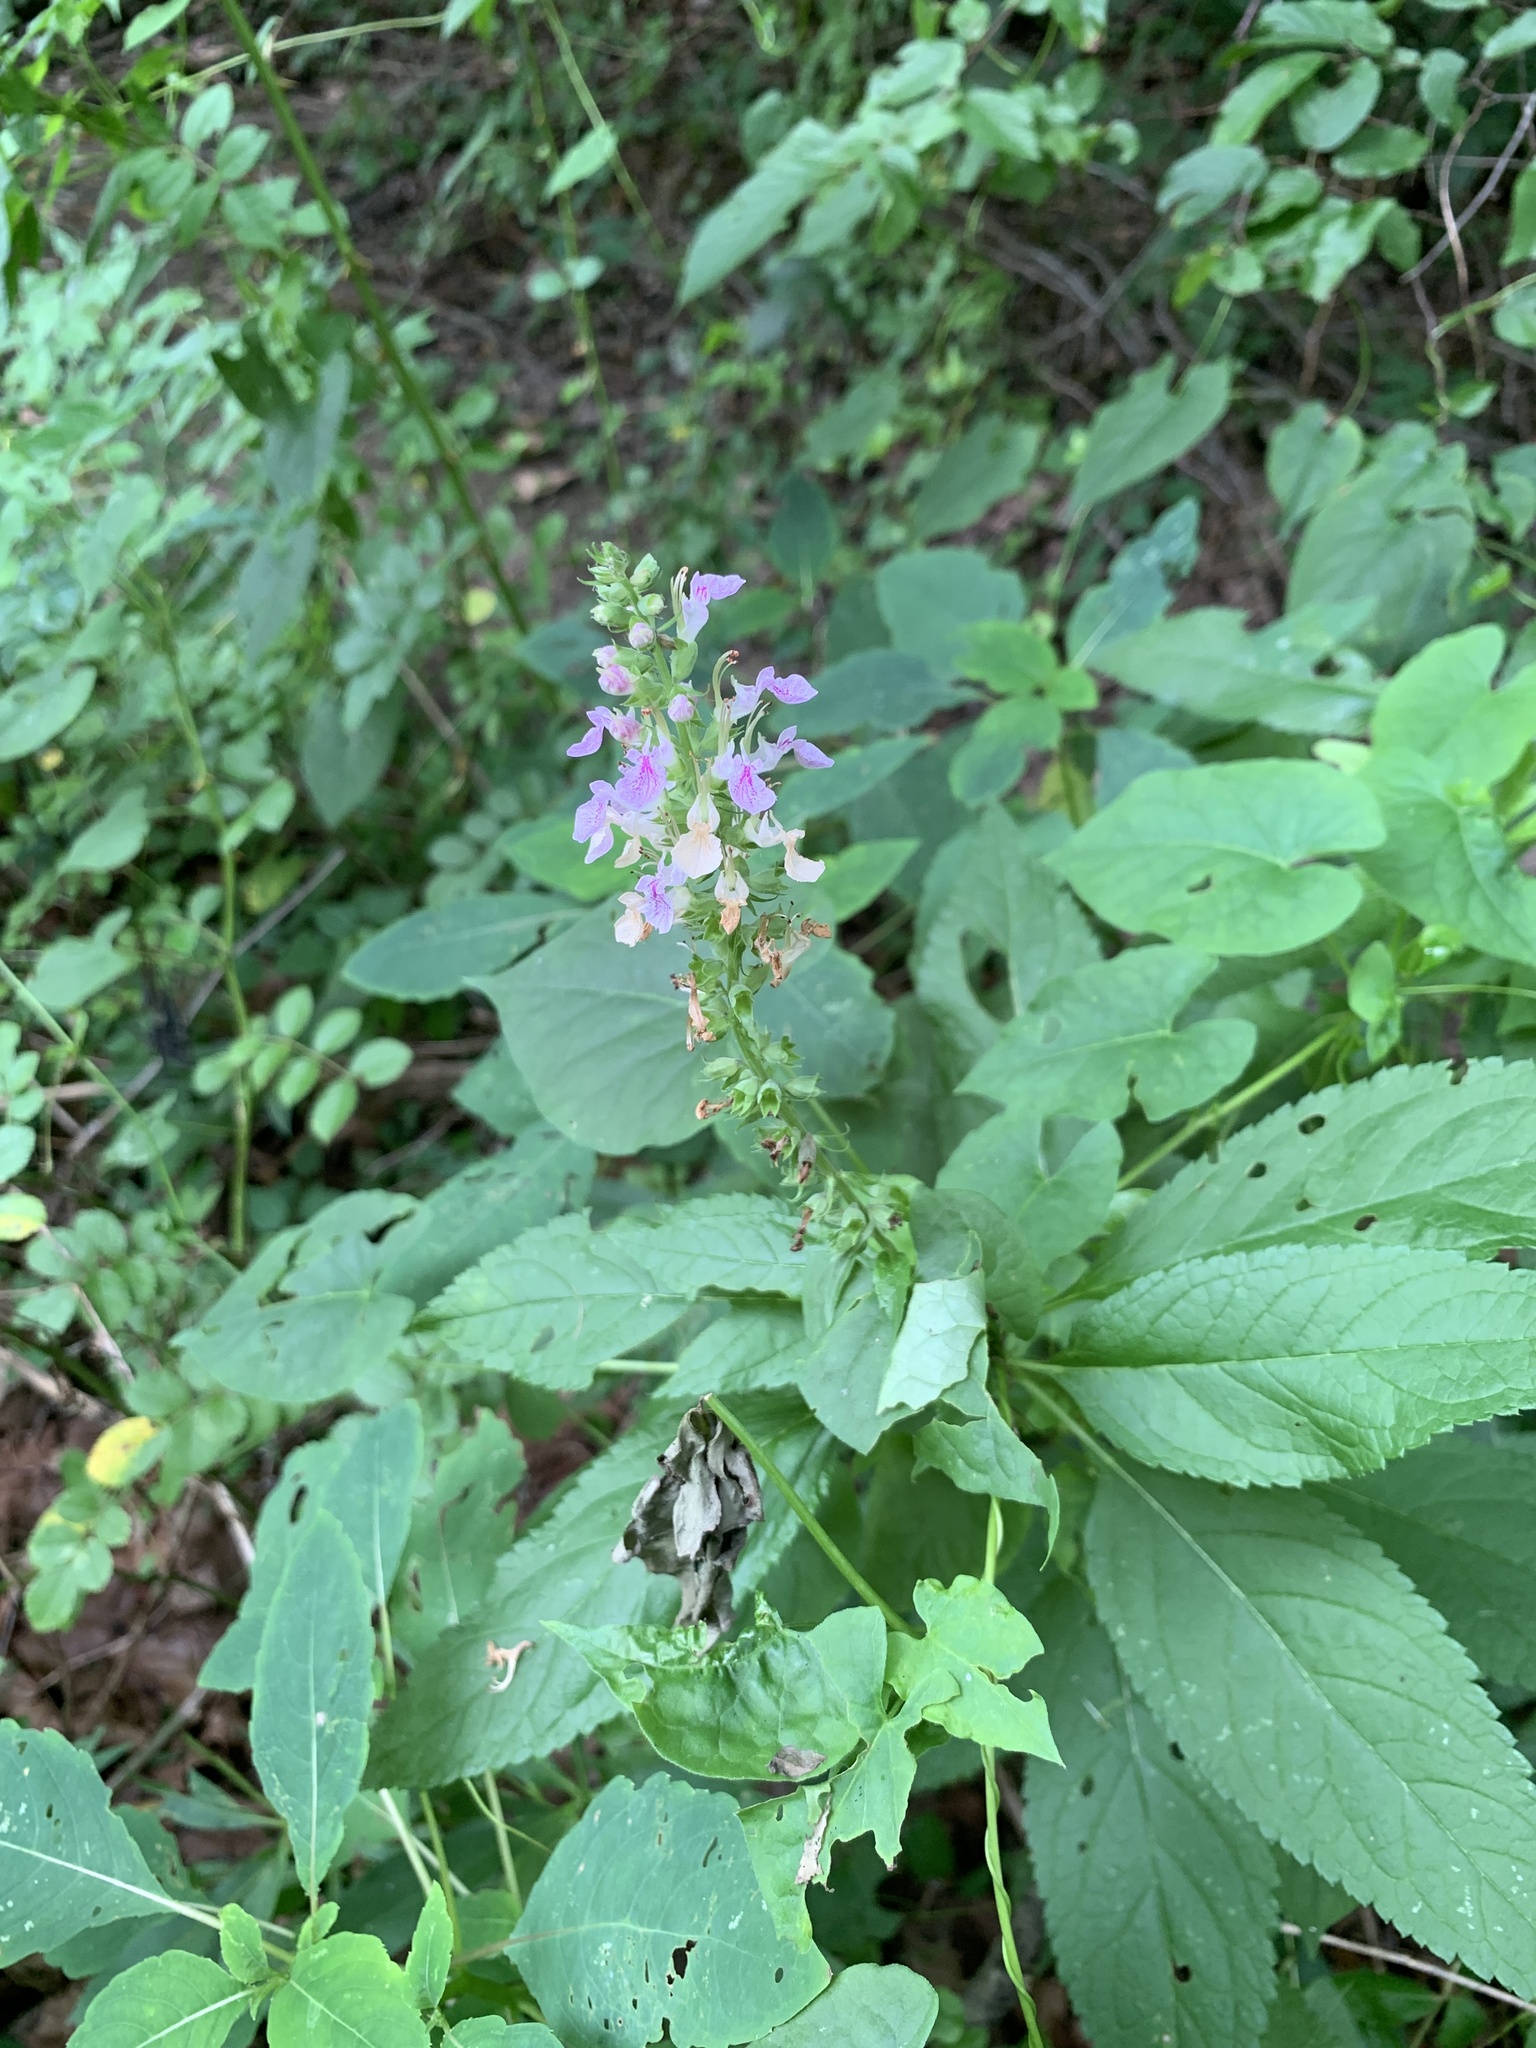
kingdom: Plantae
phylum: Tracheophyta
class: Magnoliopsida
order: Lamiales
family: Lamiaceae
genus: Teucrium
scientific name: Teucrium canadense
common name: American germander
